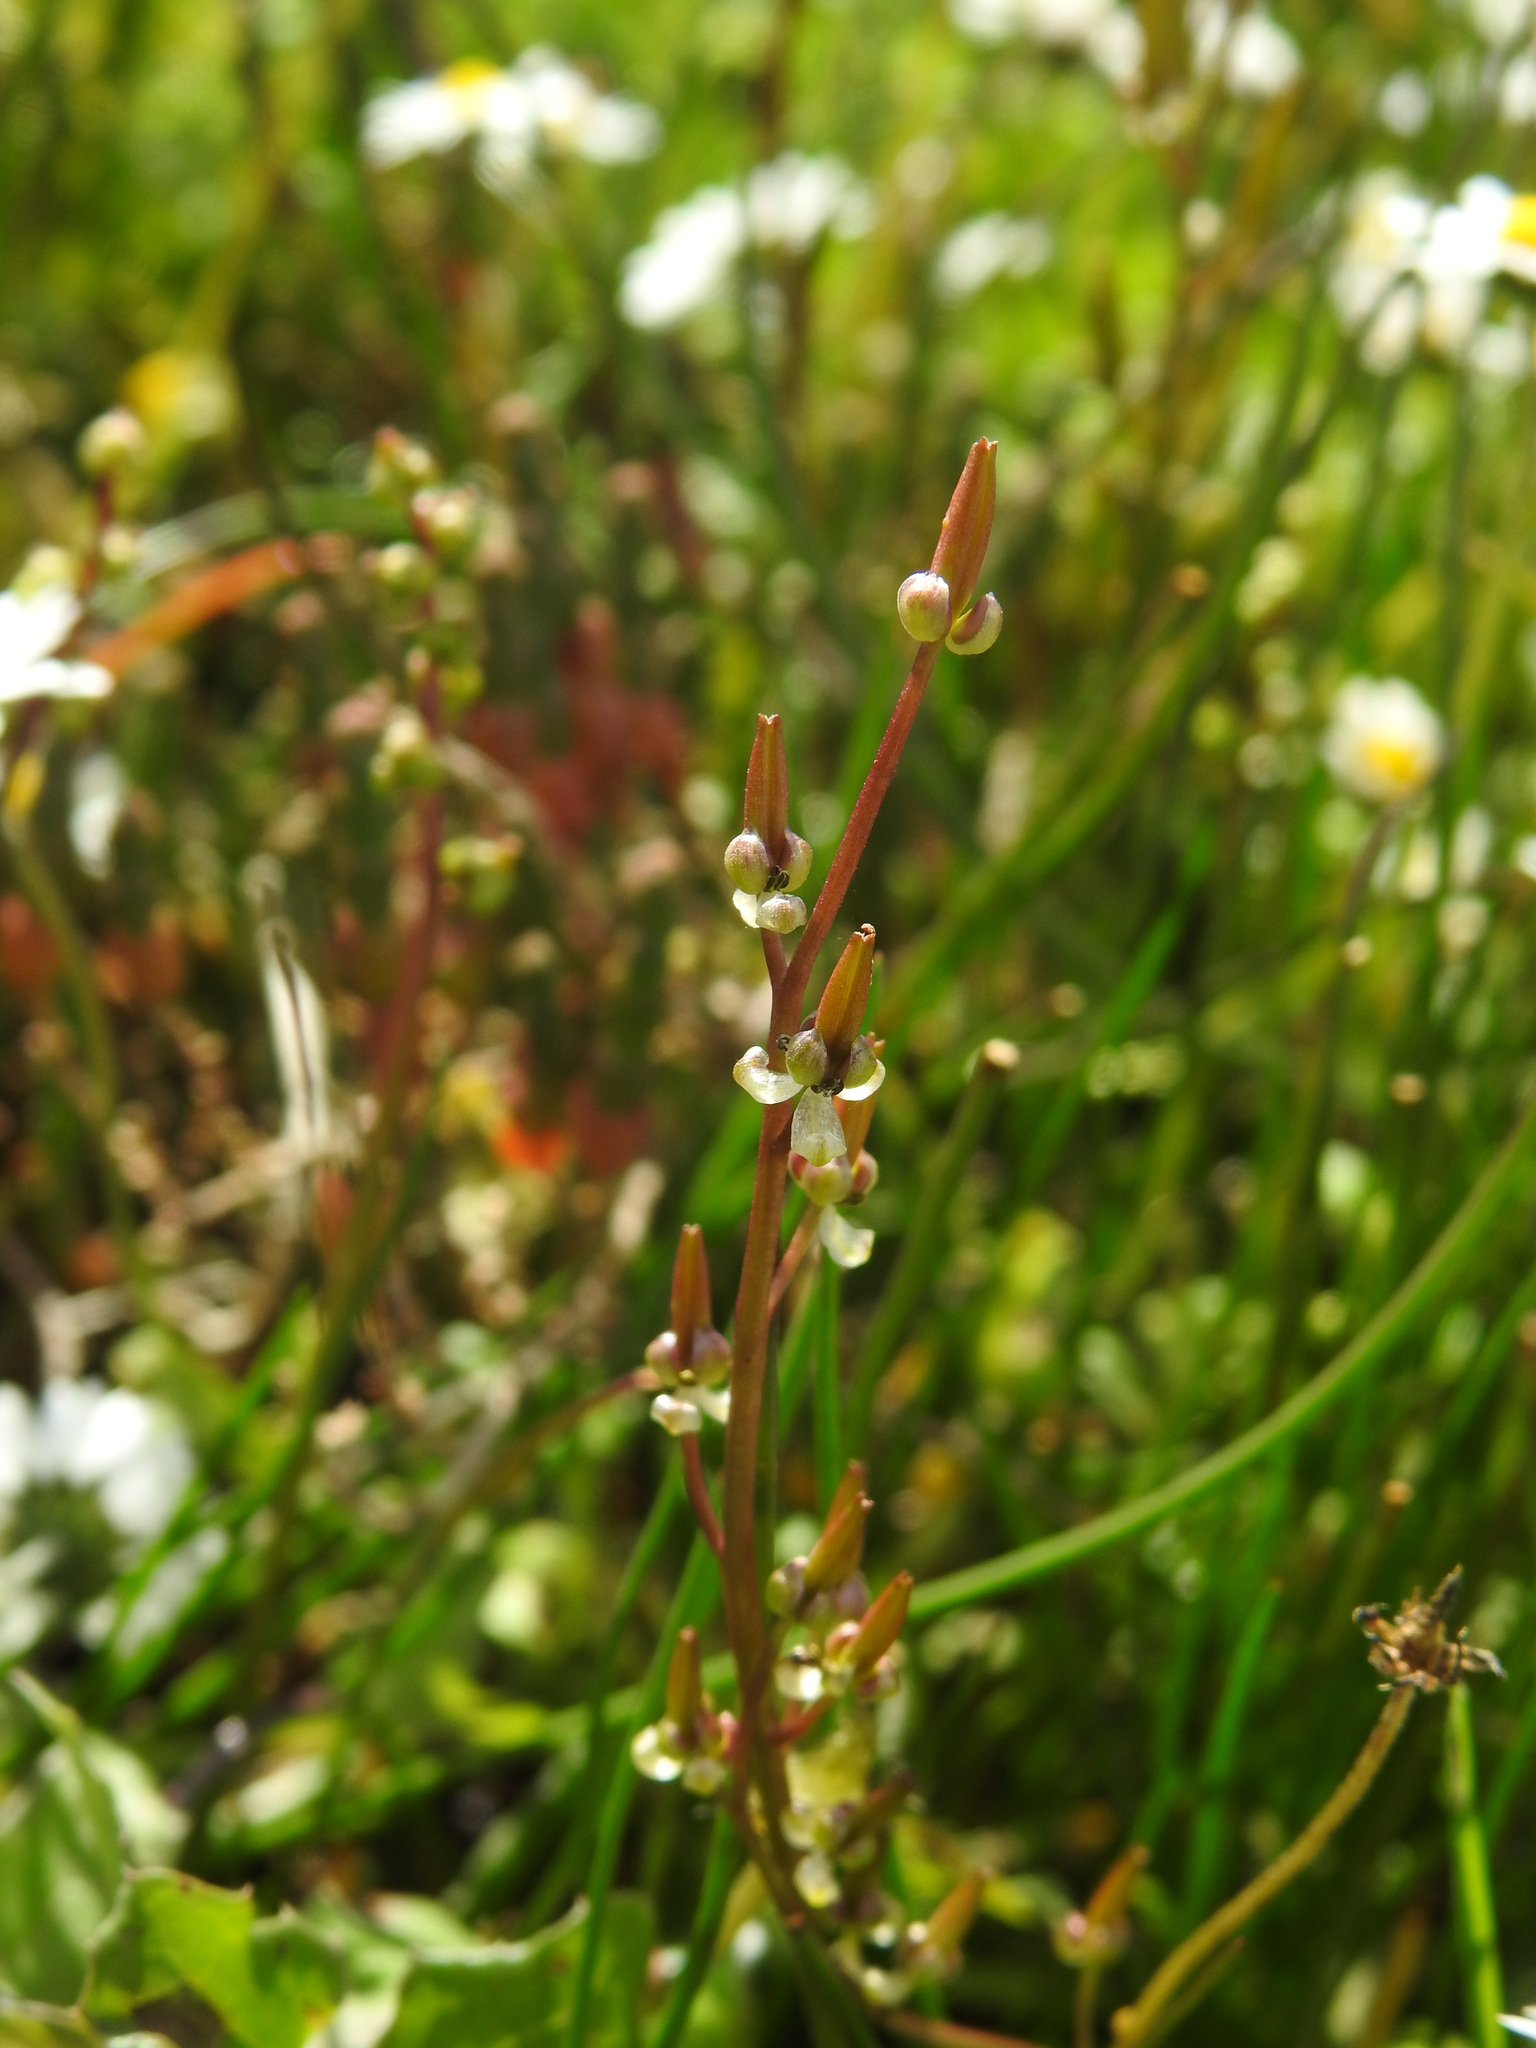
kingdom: Plantae
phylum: Tracheophyta
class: Liliopsida
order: Alismatales
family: Juncaginaceae
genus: Triglochin
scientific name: Triglochin barrelieri
